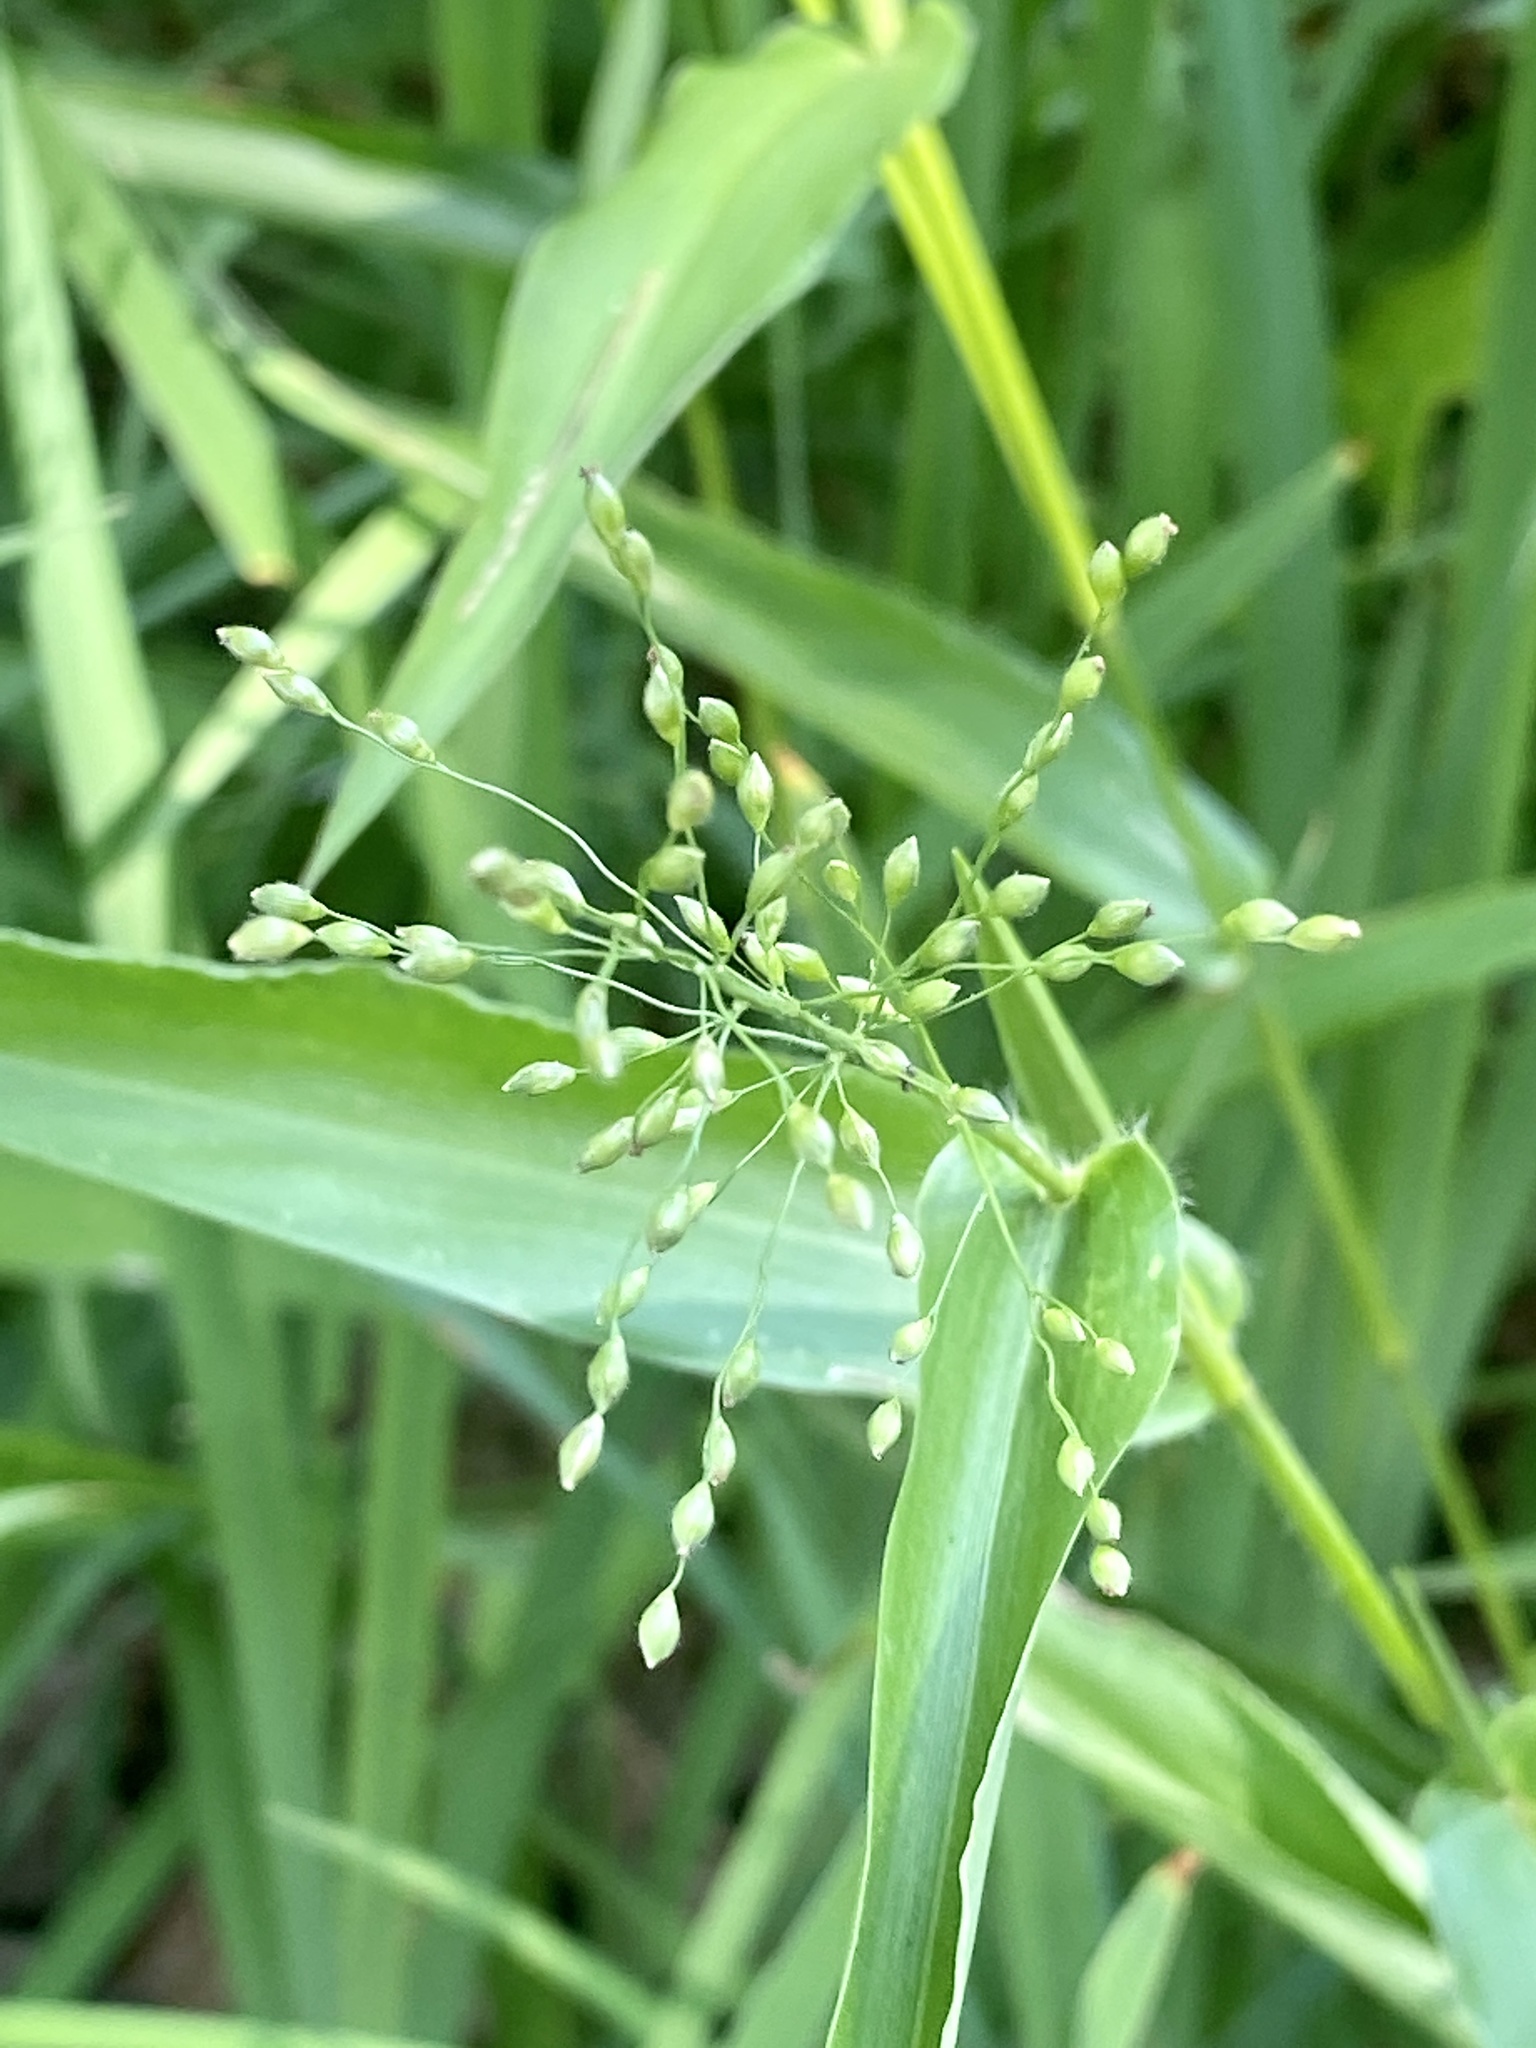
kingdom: Plantae
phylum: Tracheophyta
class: Liliopsida
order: Poales
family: Poaceae
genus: Dichanthelium
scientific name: Dichanthelium clandestinum
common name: Deer-tongue grass
